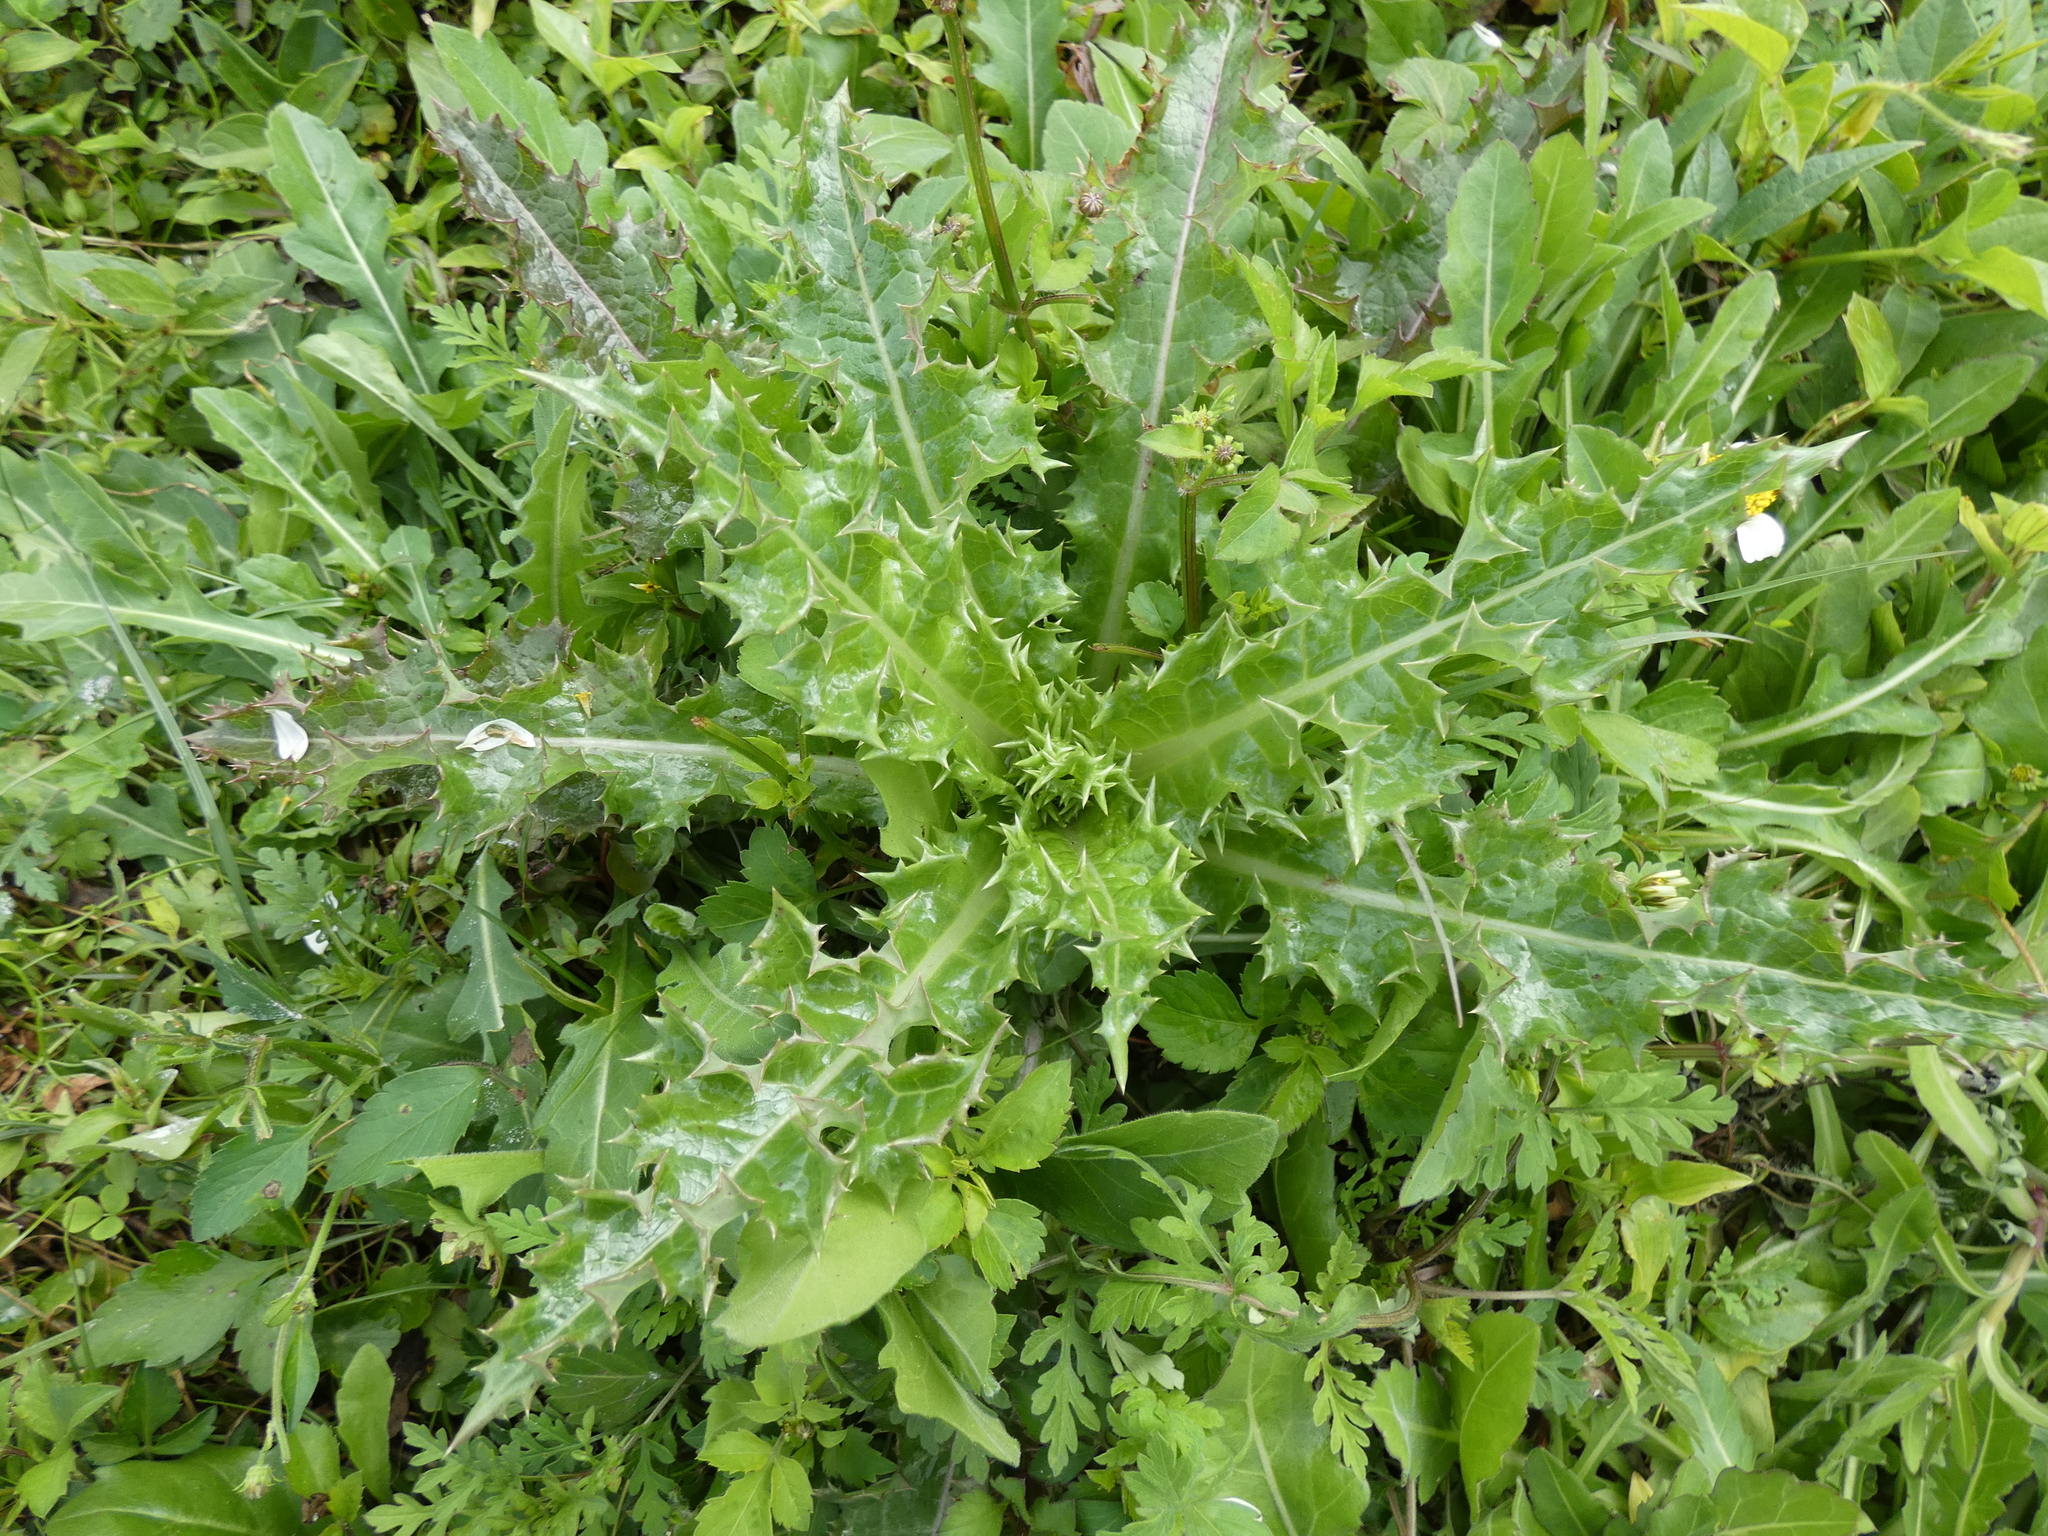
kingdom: Plantae
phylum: Tracheophyta
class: Magnoliopsida
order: Asterales
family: Asteraceae
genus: Sonchus
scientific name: Sonchus asper
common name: Prickly sow-thistle
